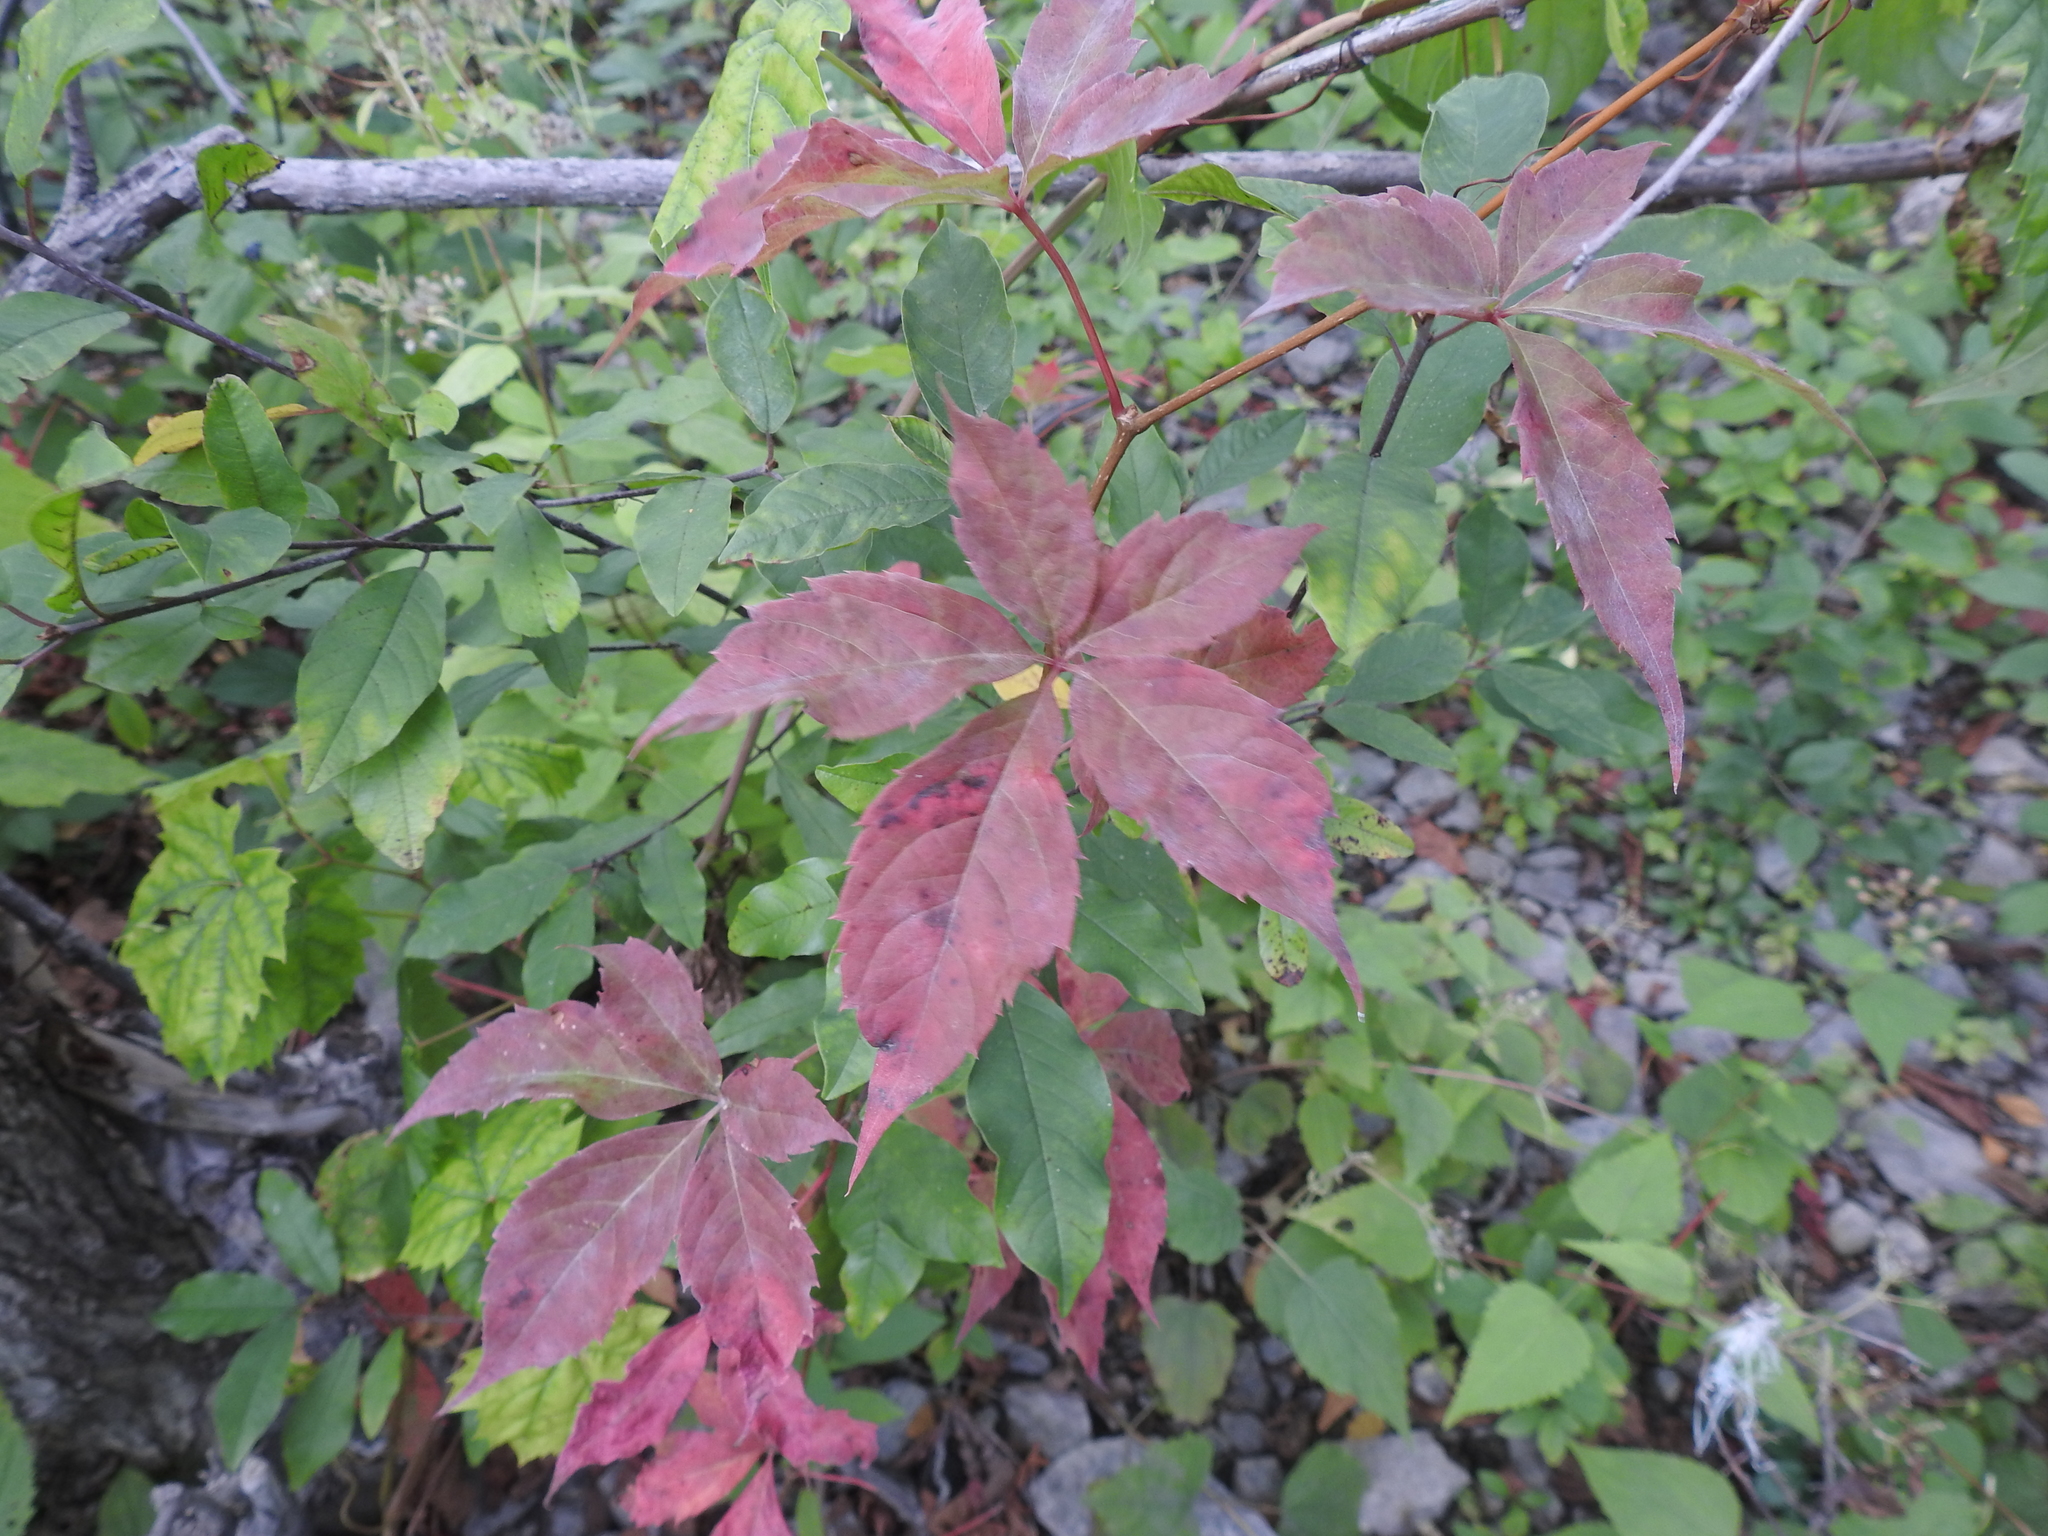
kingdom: Plantae
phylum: Tracheophyta
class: Magnoliopsida
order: Vitales
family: Vitaceae
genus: Parthenocissus
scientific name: Parthenocissus quinquefolia
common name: Virginia-creeper
